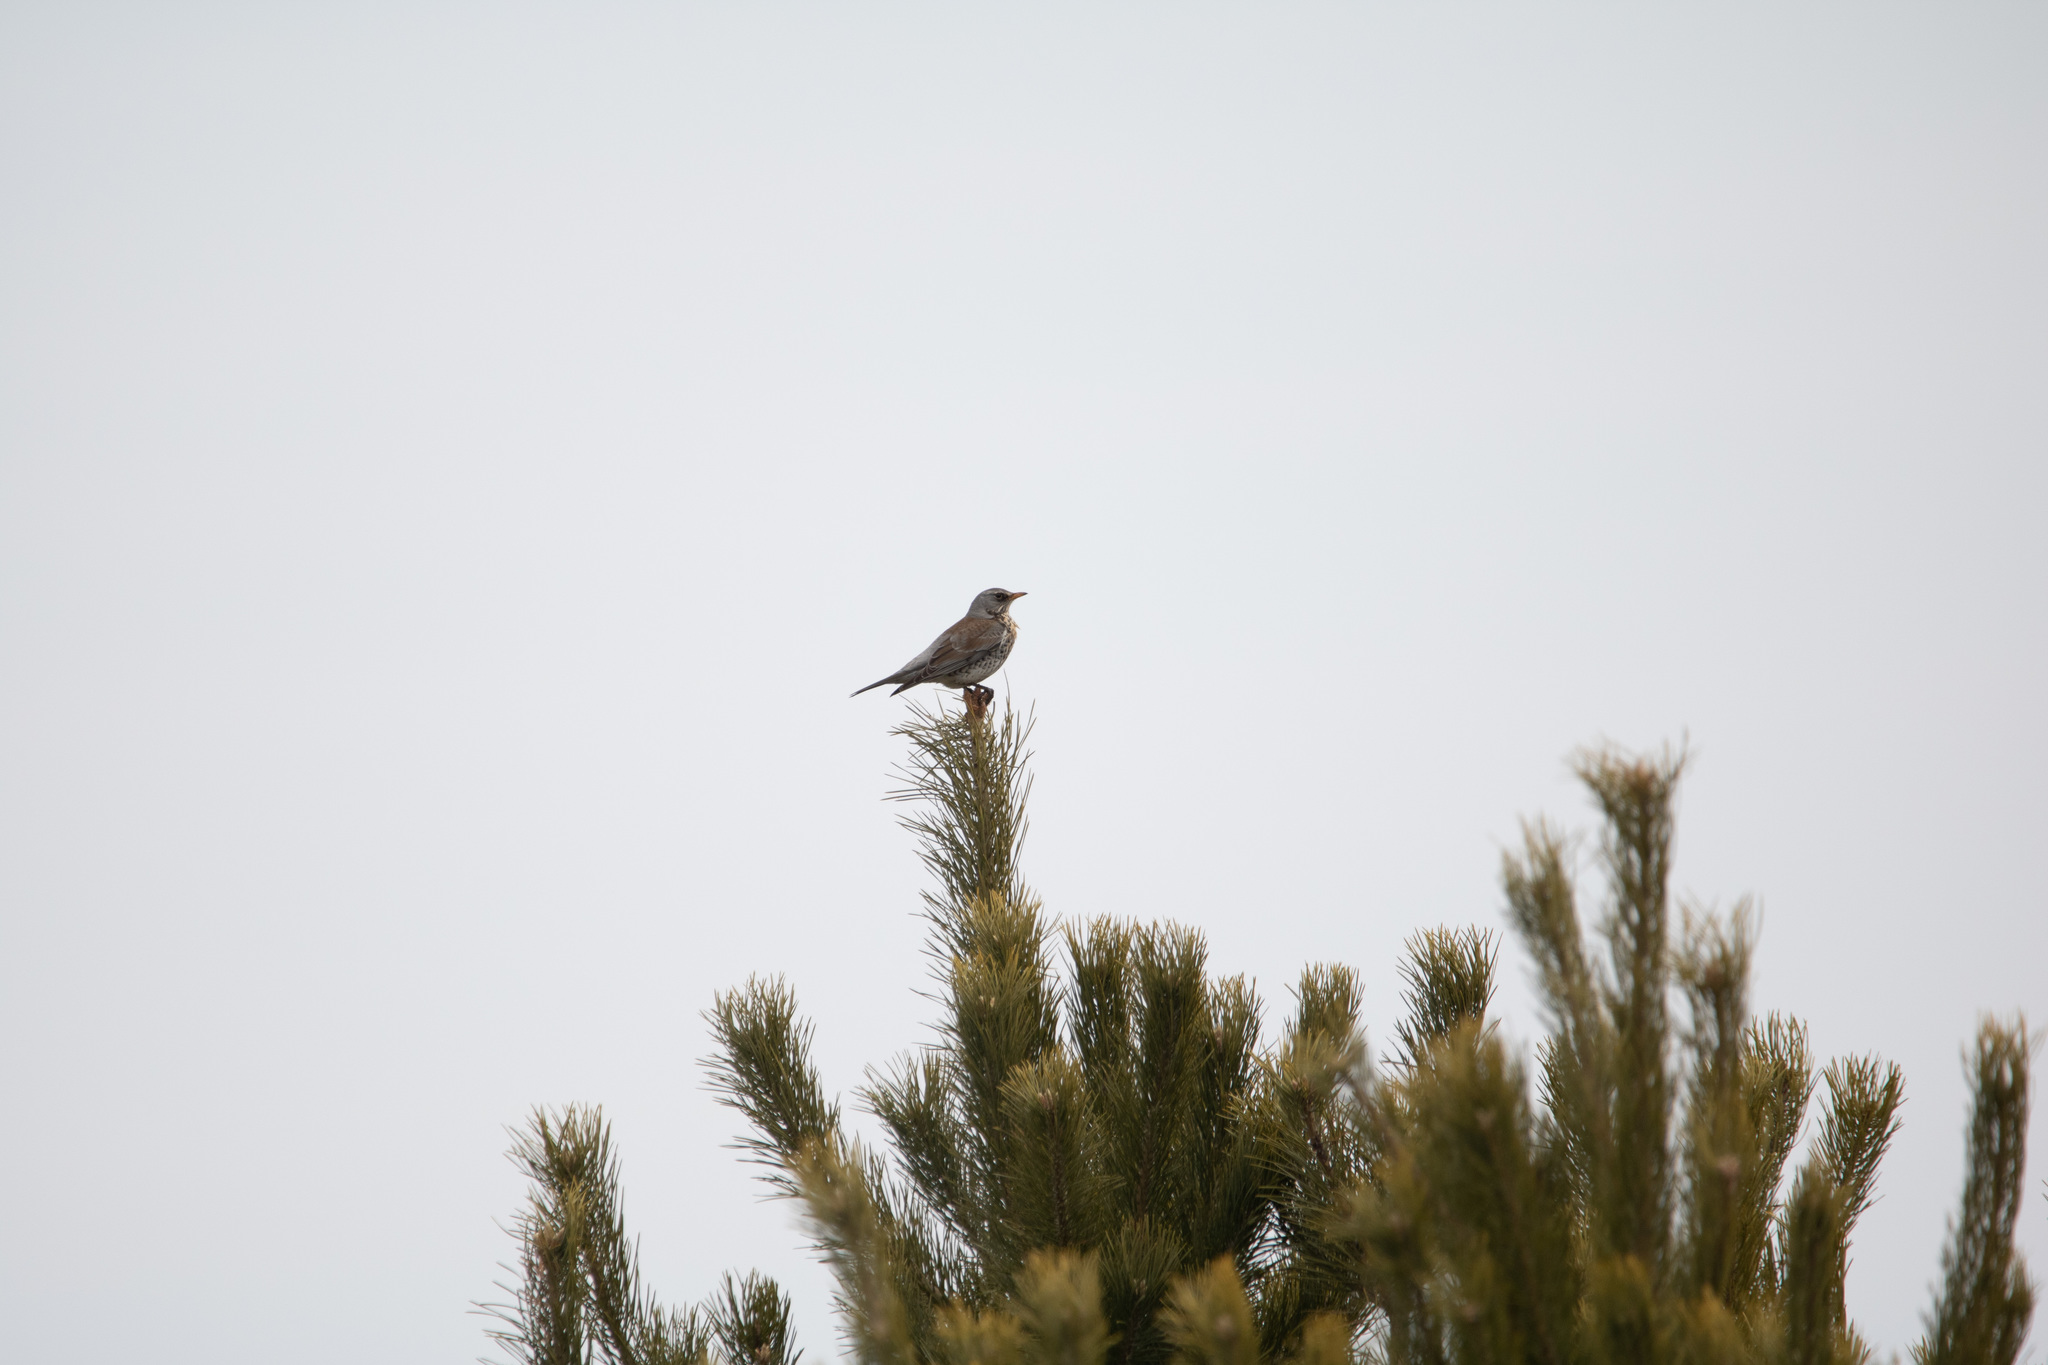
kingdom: Animalia
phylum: Chordata
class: Aves
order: Passeriformes
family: Turdidae
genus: Turdus
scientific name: Turdus pilaris
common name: Fieldfare
